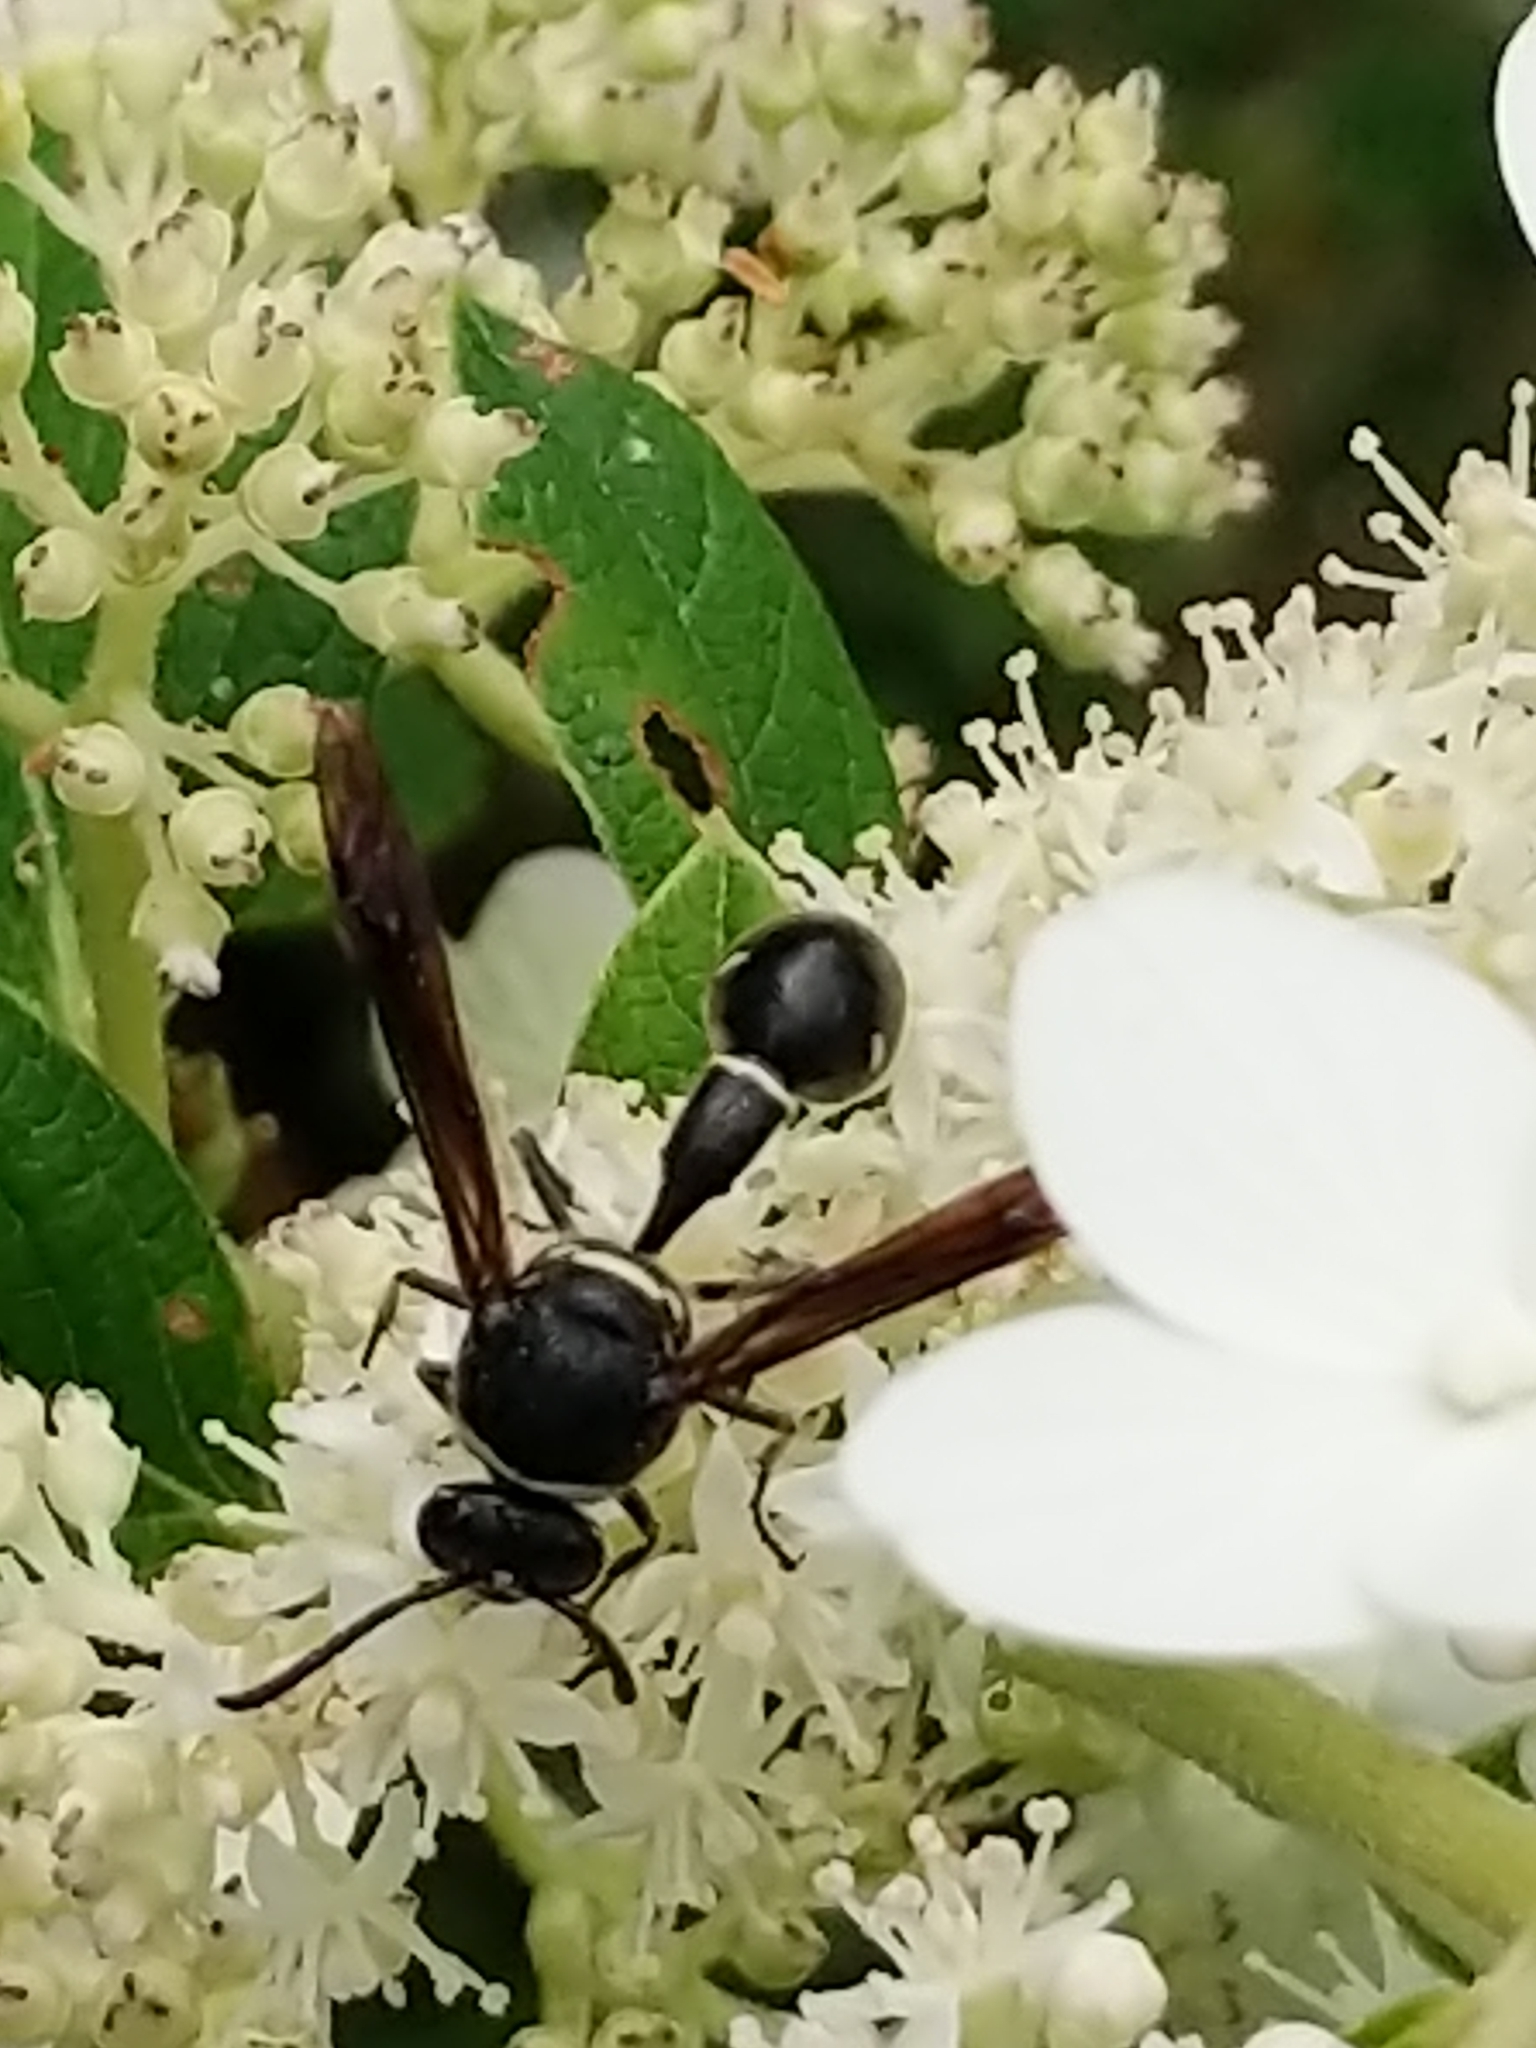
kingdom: Animalia
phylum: Arthropoda
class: Insecta
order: Hymenoptera
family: Vespidae
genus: Eumenes
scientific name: Eumenes fraternus
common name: Fraternal potter wasp
